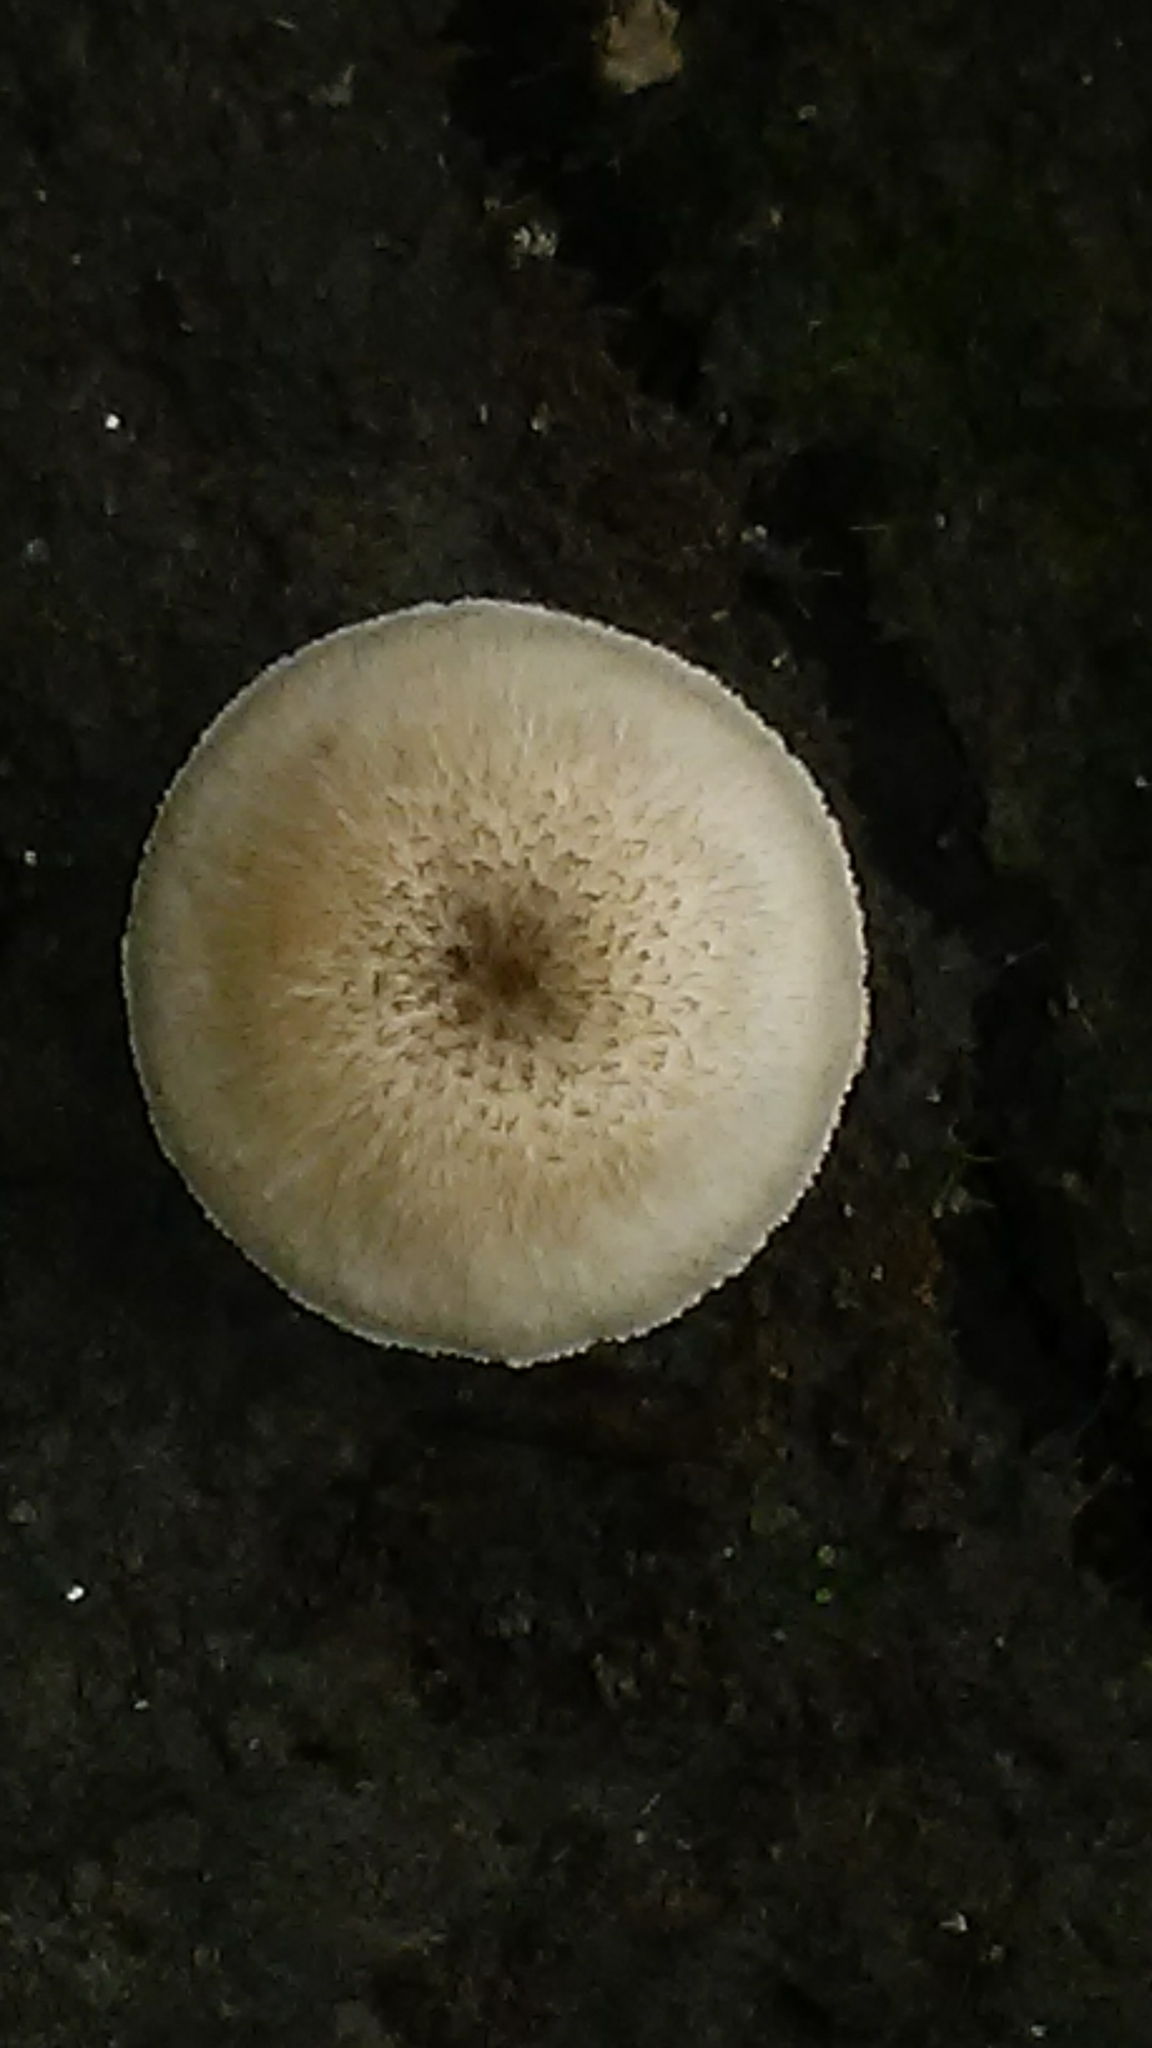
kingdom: Fungi
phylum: Basidiomycota
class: Agaricomycetes
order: Polyporales
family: Polyporaceae
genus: Lentinus
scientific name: Lentinus tigrinus
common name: Tiger sawgill
